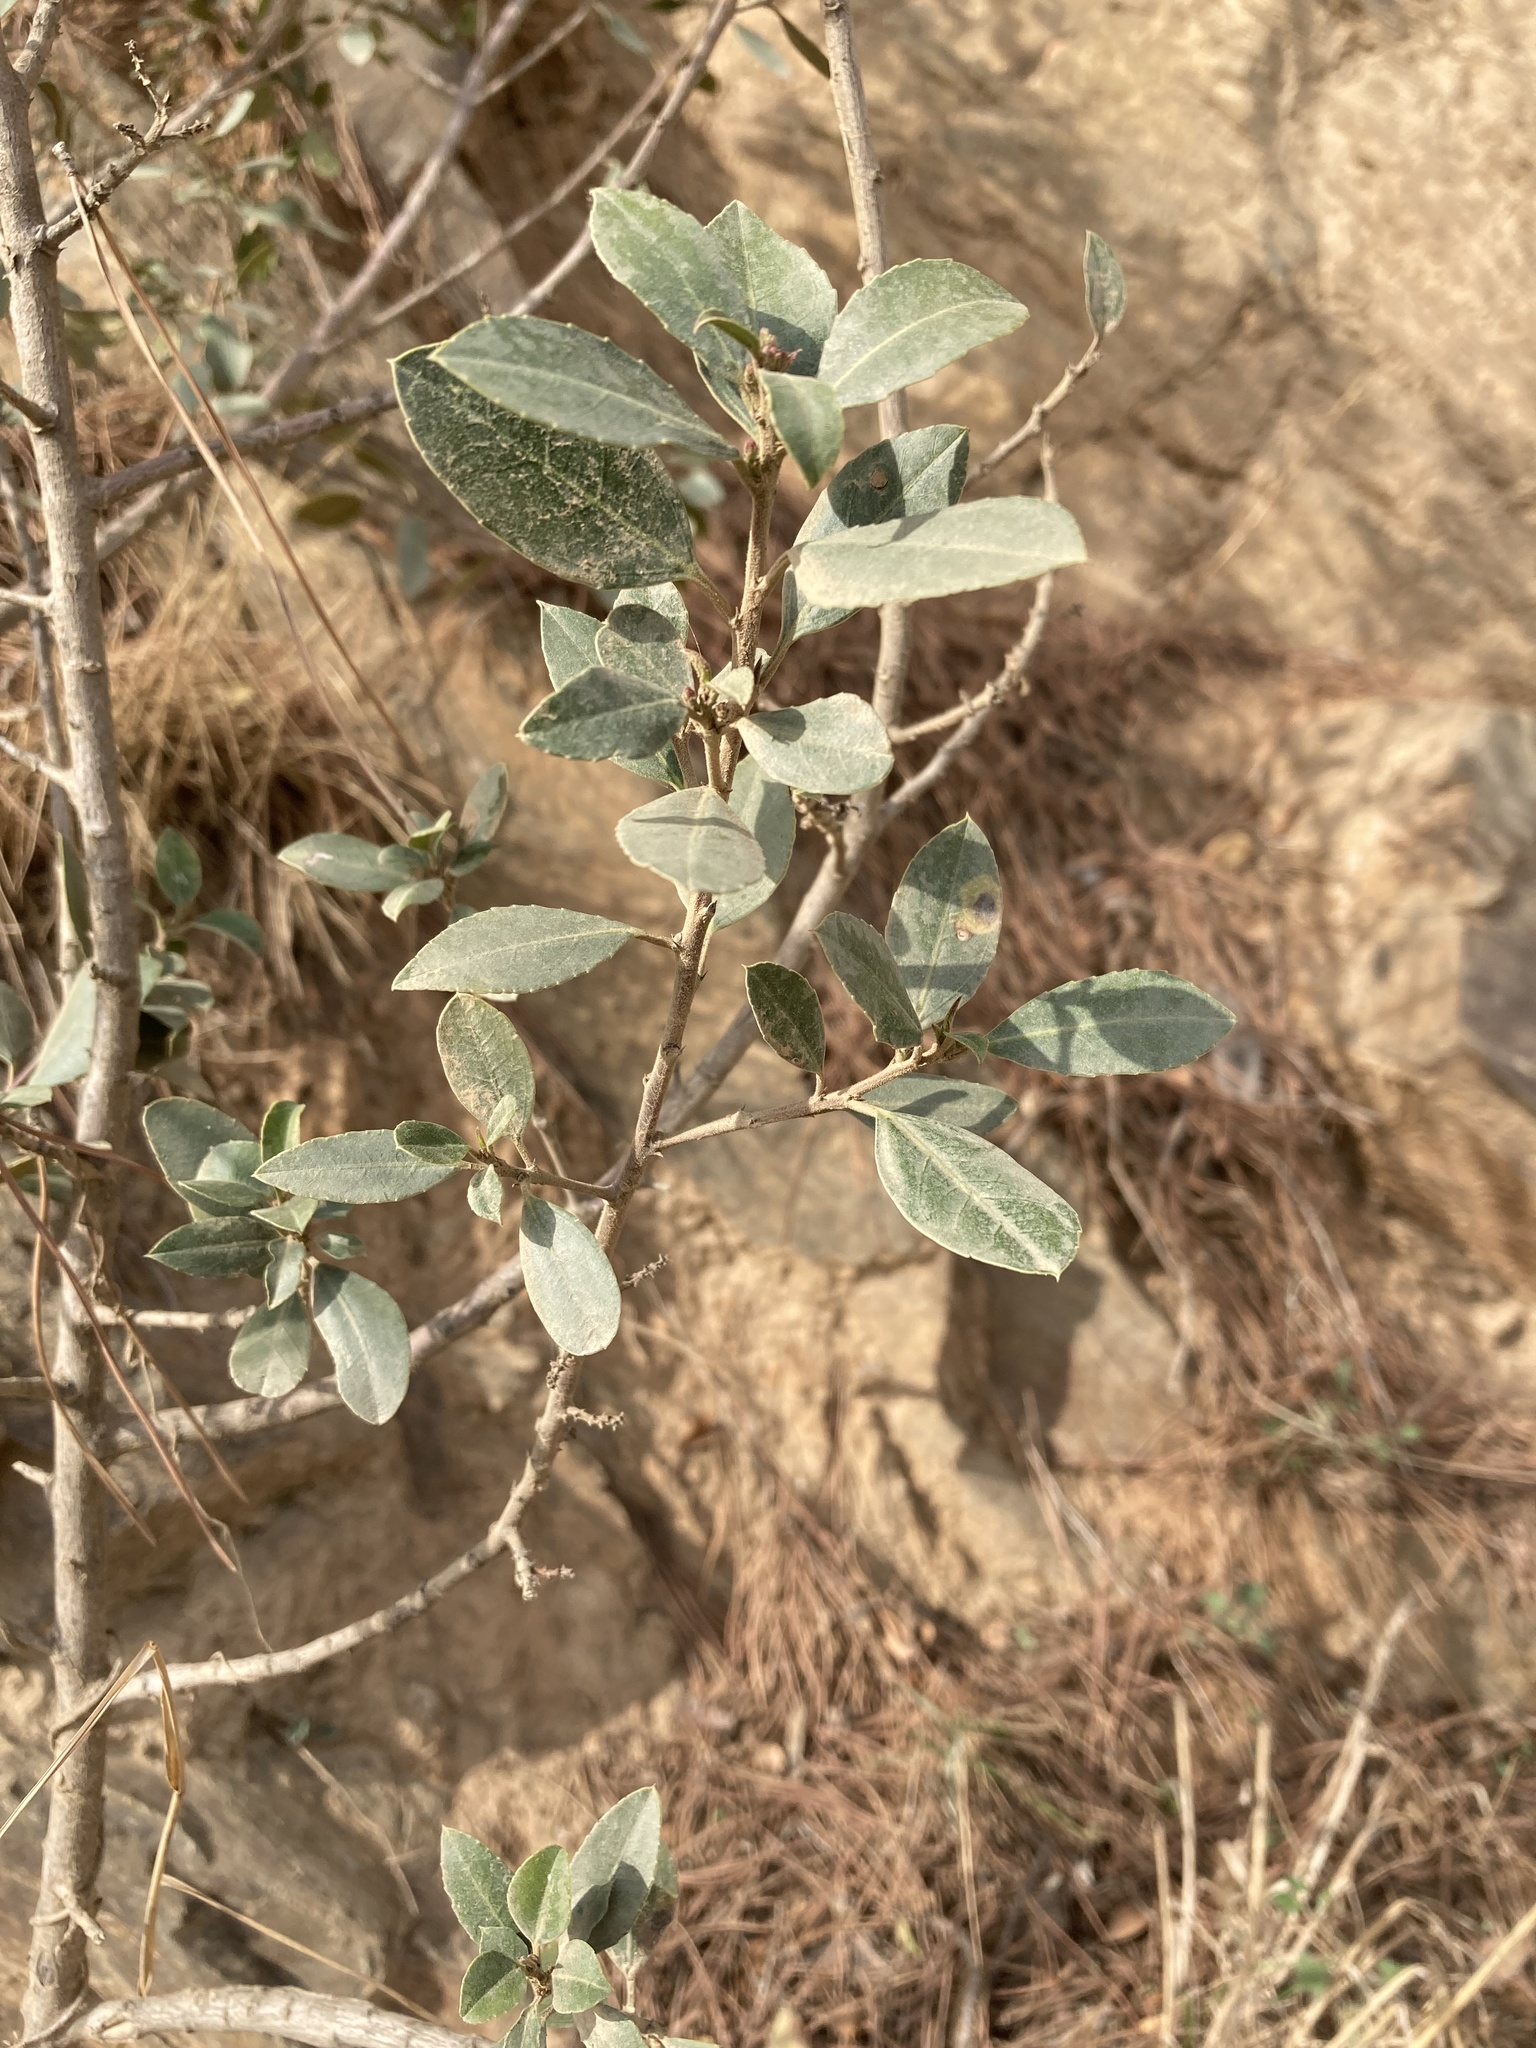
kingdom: Plantae
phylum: Tracheophyta
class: Magnoliopsida
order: Rosales
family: Rhamnaceae
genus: Rhamnus
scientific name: Rhamnus alaternus
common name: Mediterranean buckthorn
